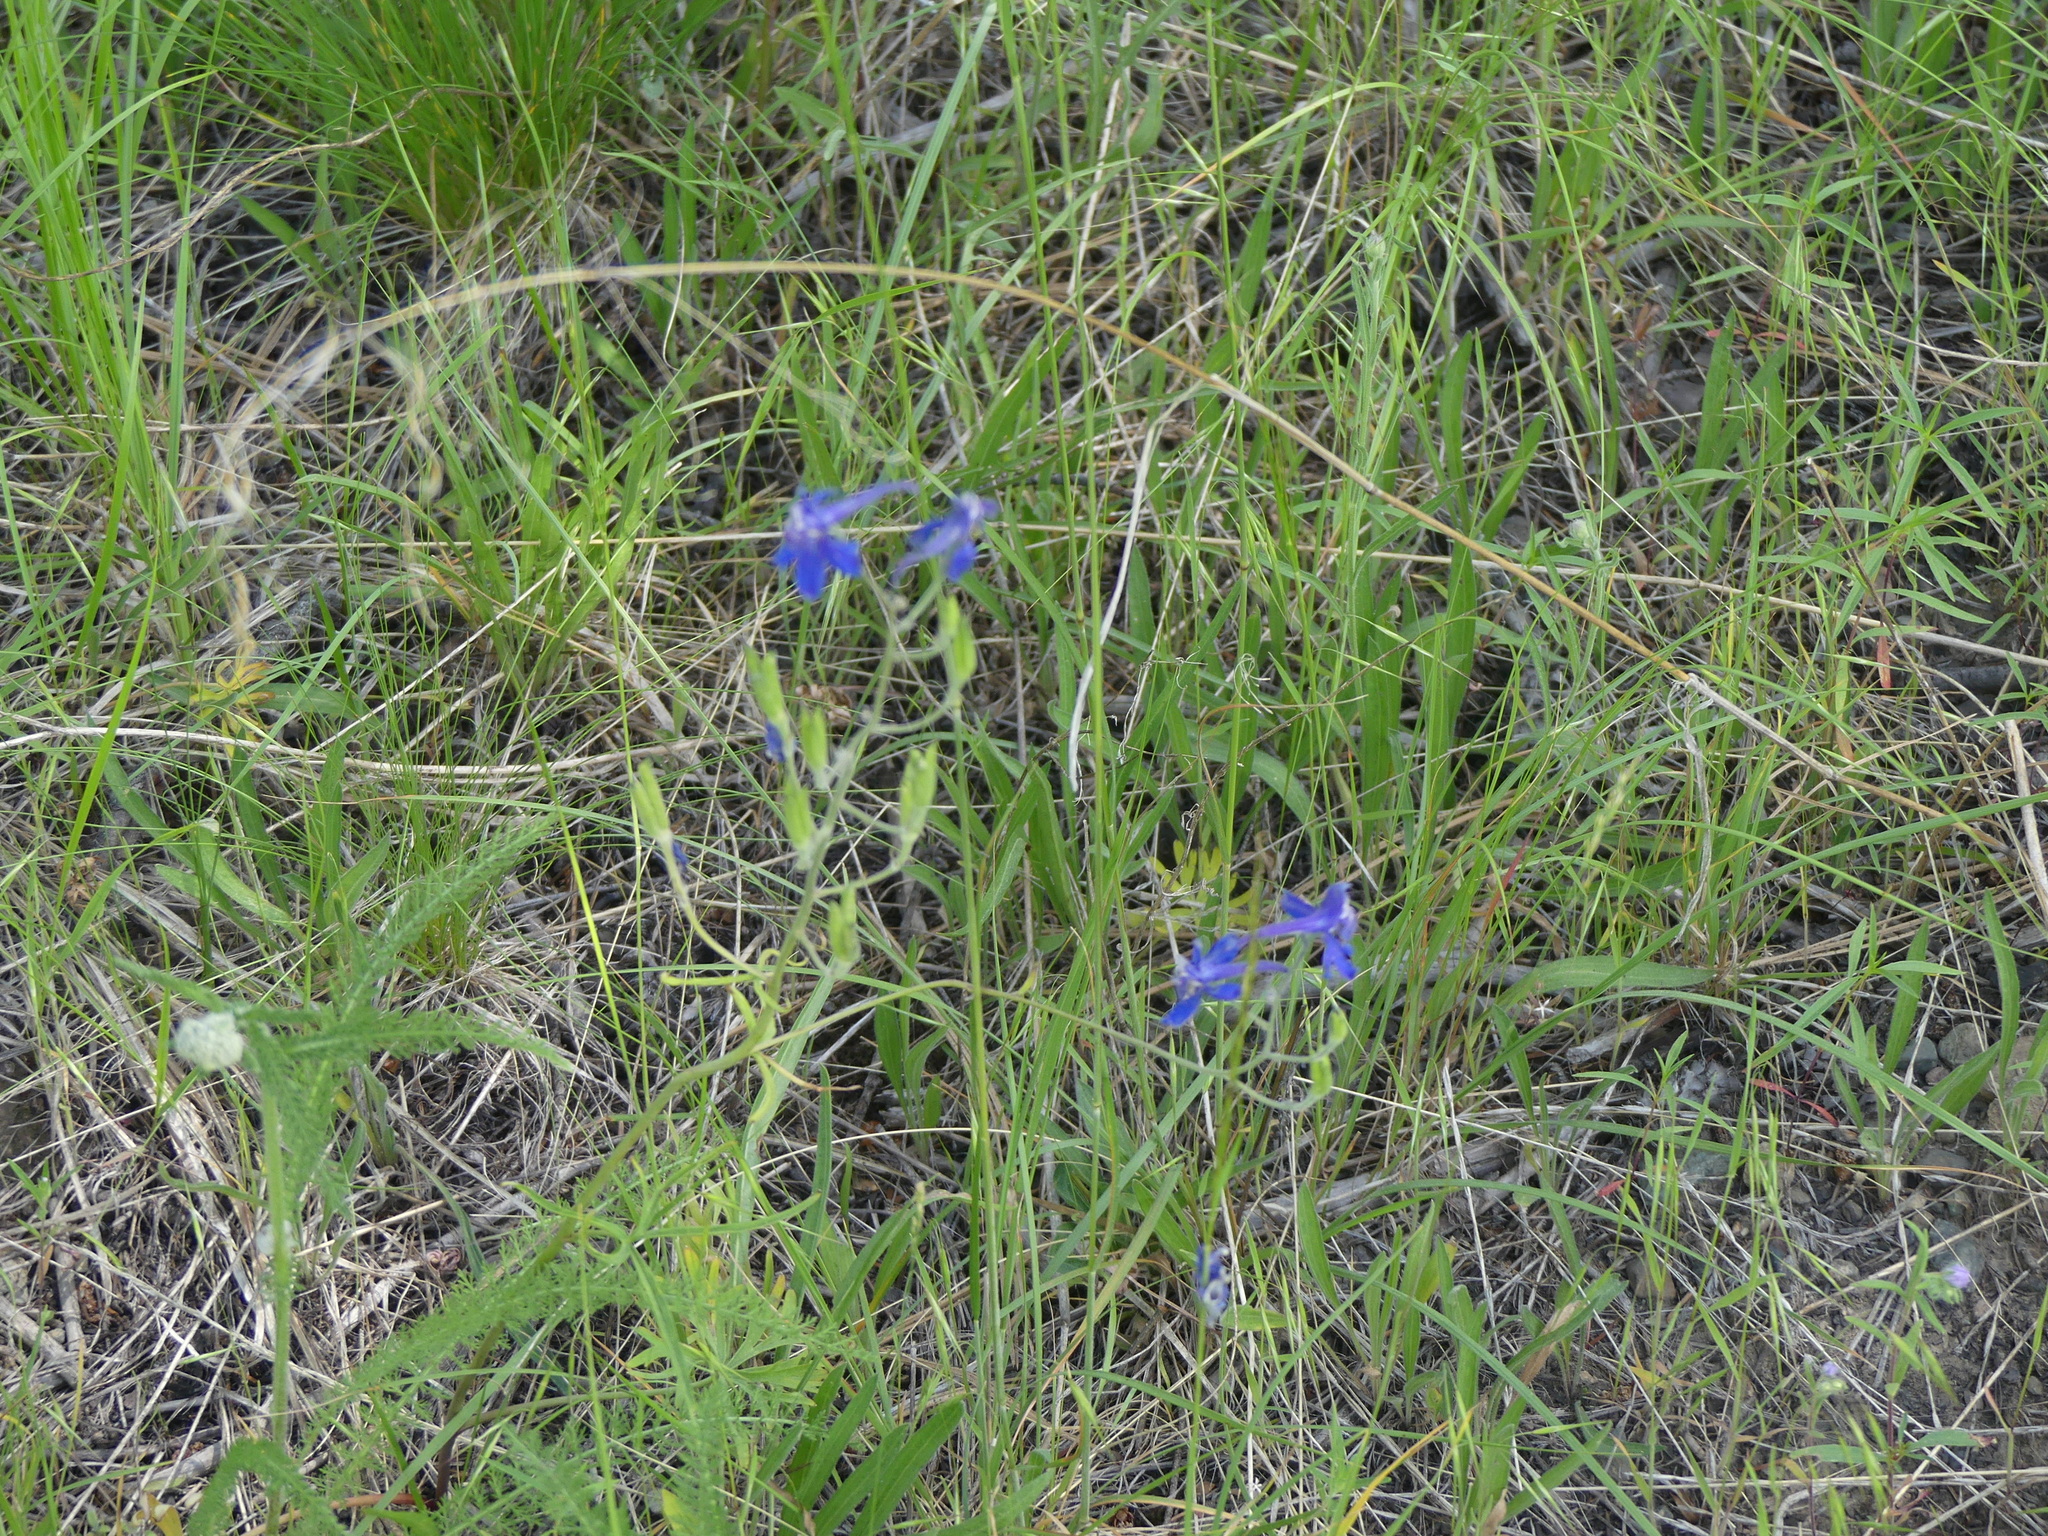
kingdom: Plantae
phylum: Tracheophyta
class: Magnoliopsida
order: Ranunculales
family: Ranunculaceae
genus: Delphinium
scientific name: Delphinium nuttallianum
